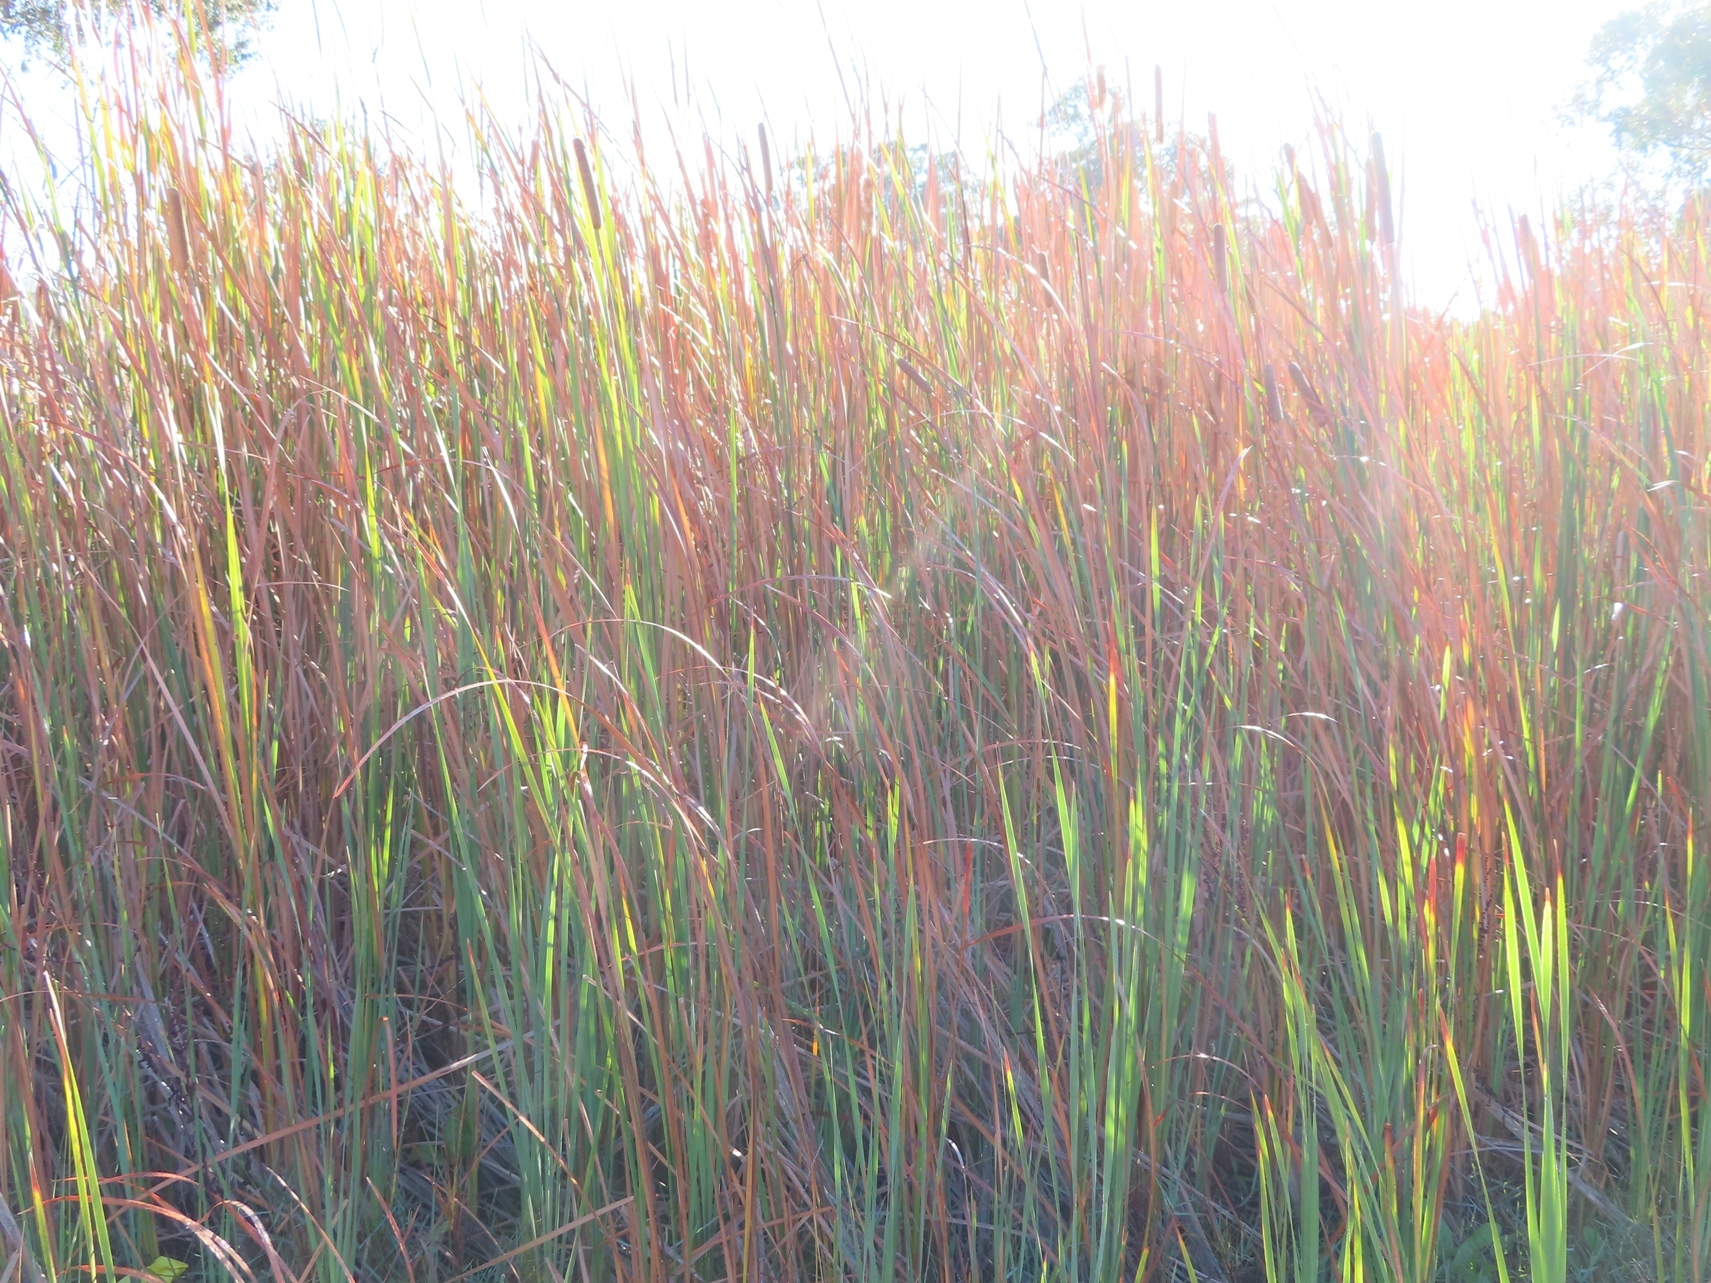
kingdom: Plantae
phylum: Tracheophyta
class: Liliopsida
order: Poales
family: Typhaceae
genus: Typha
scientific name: Typha capensis
